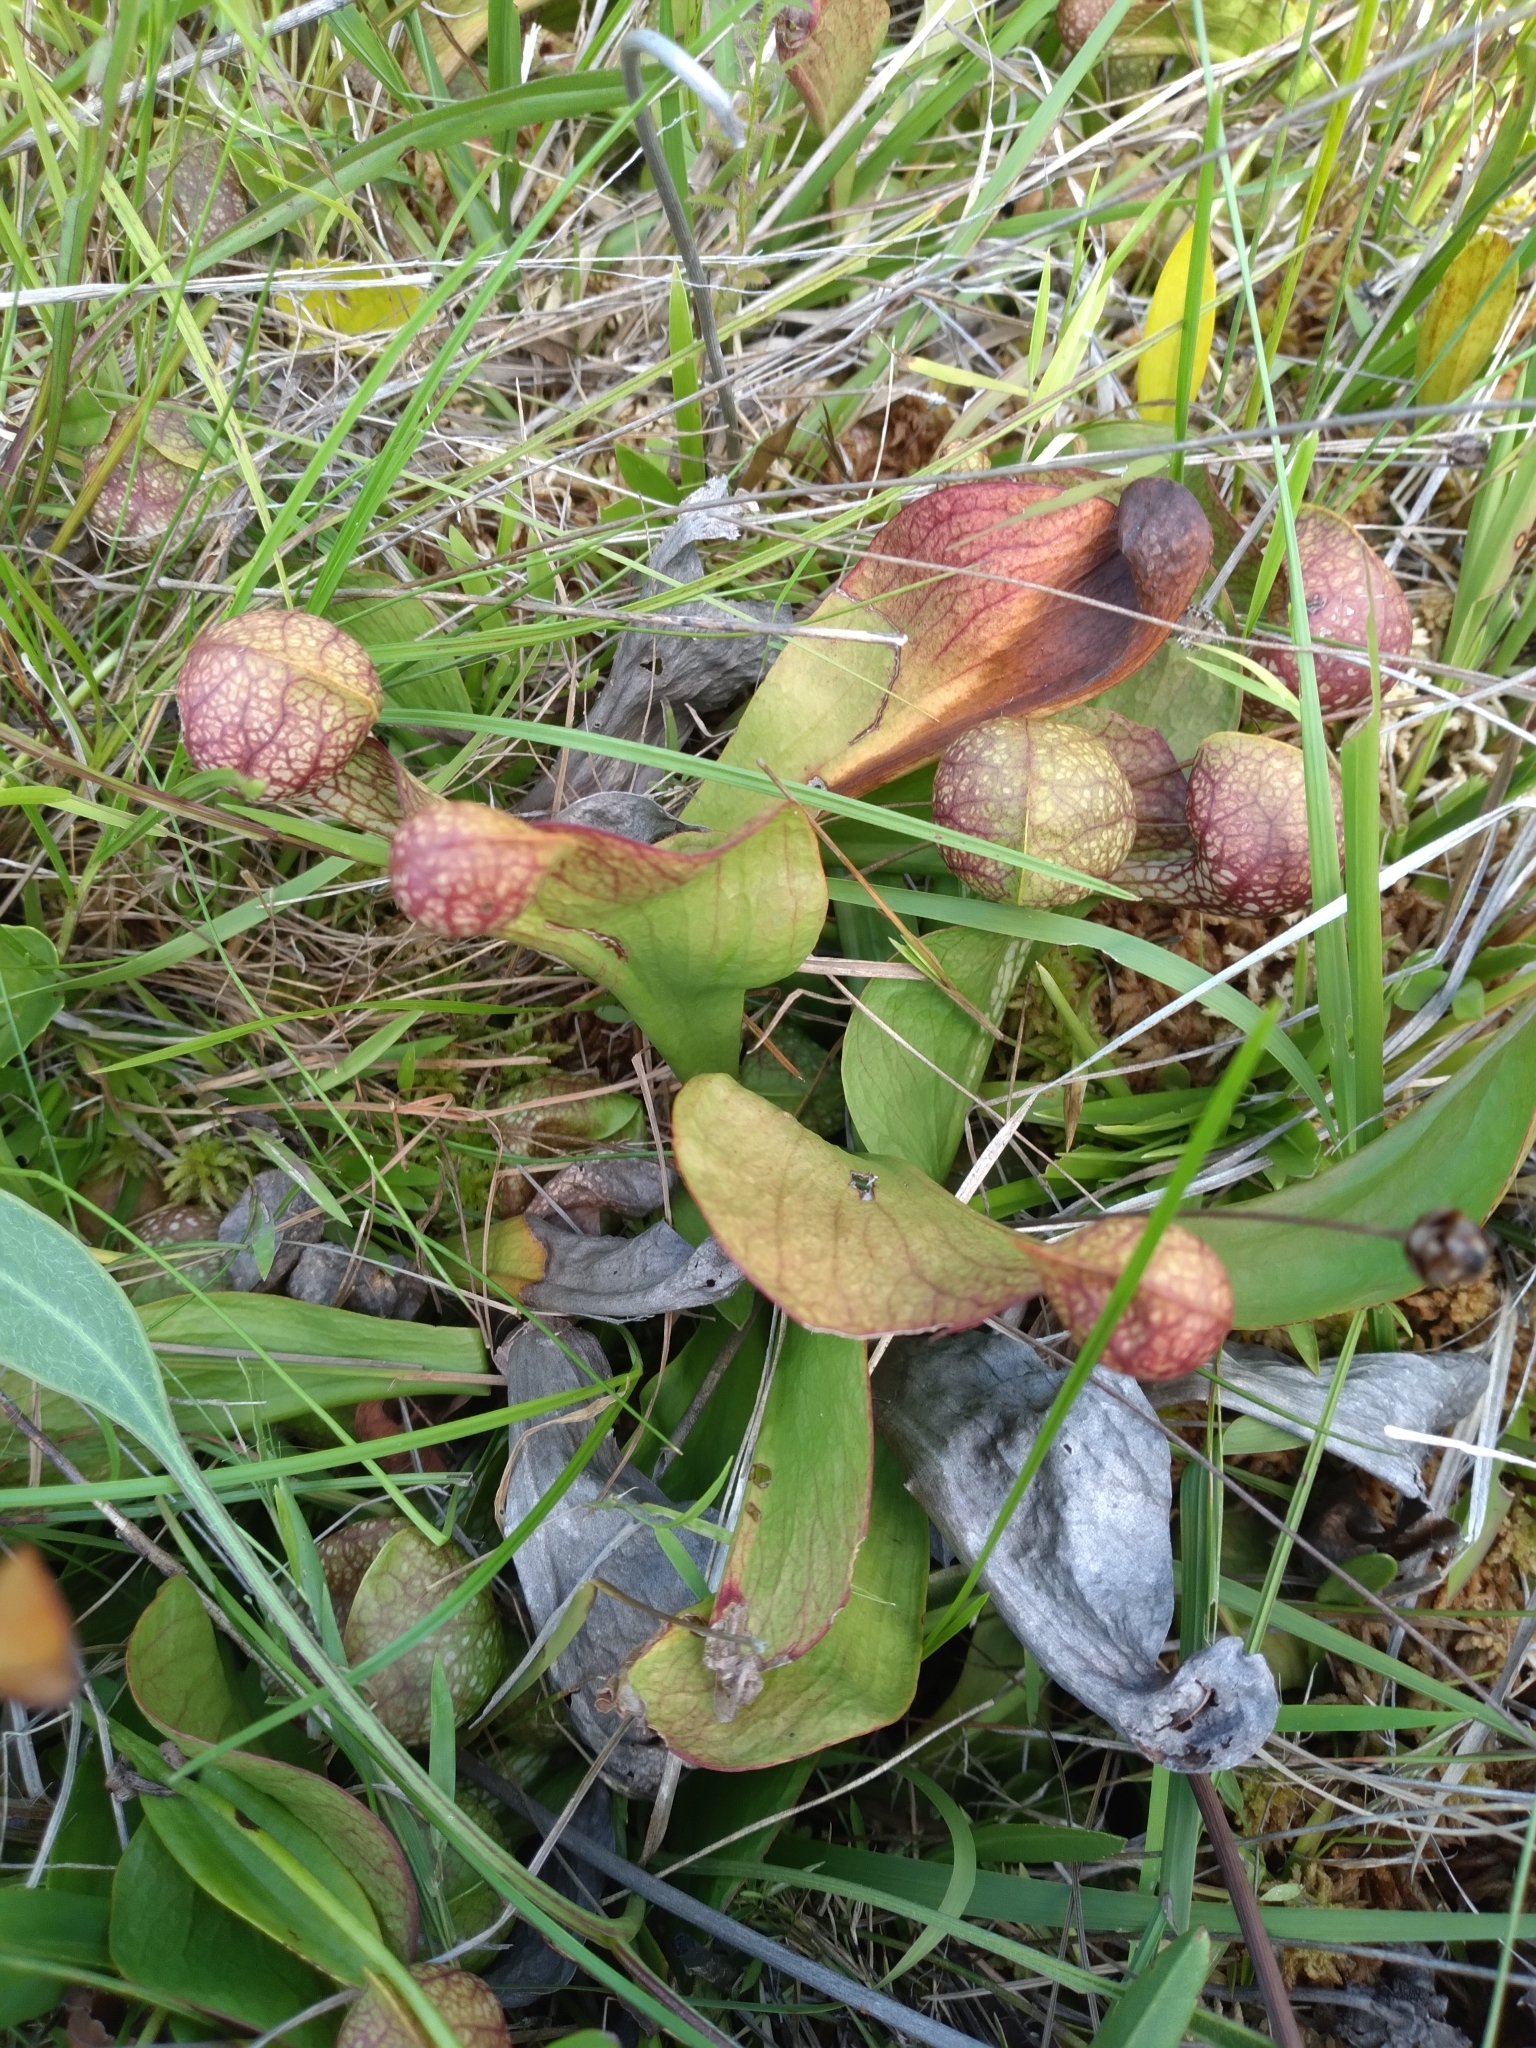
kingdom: Plantae
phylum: Tracheophyta
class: Magnoliopsida
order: Ericales
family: Sarraceniaceae
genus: Sarracenia
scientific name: Sarracenia psittacina
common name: Parrot pitcherplant
